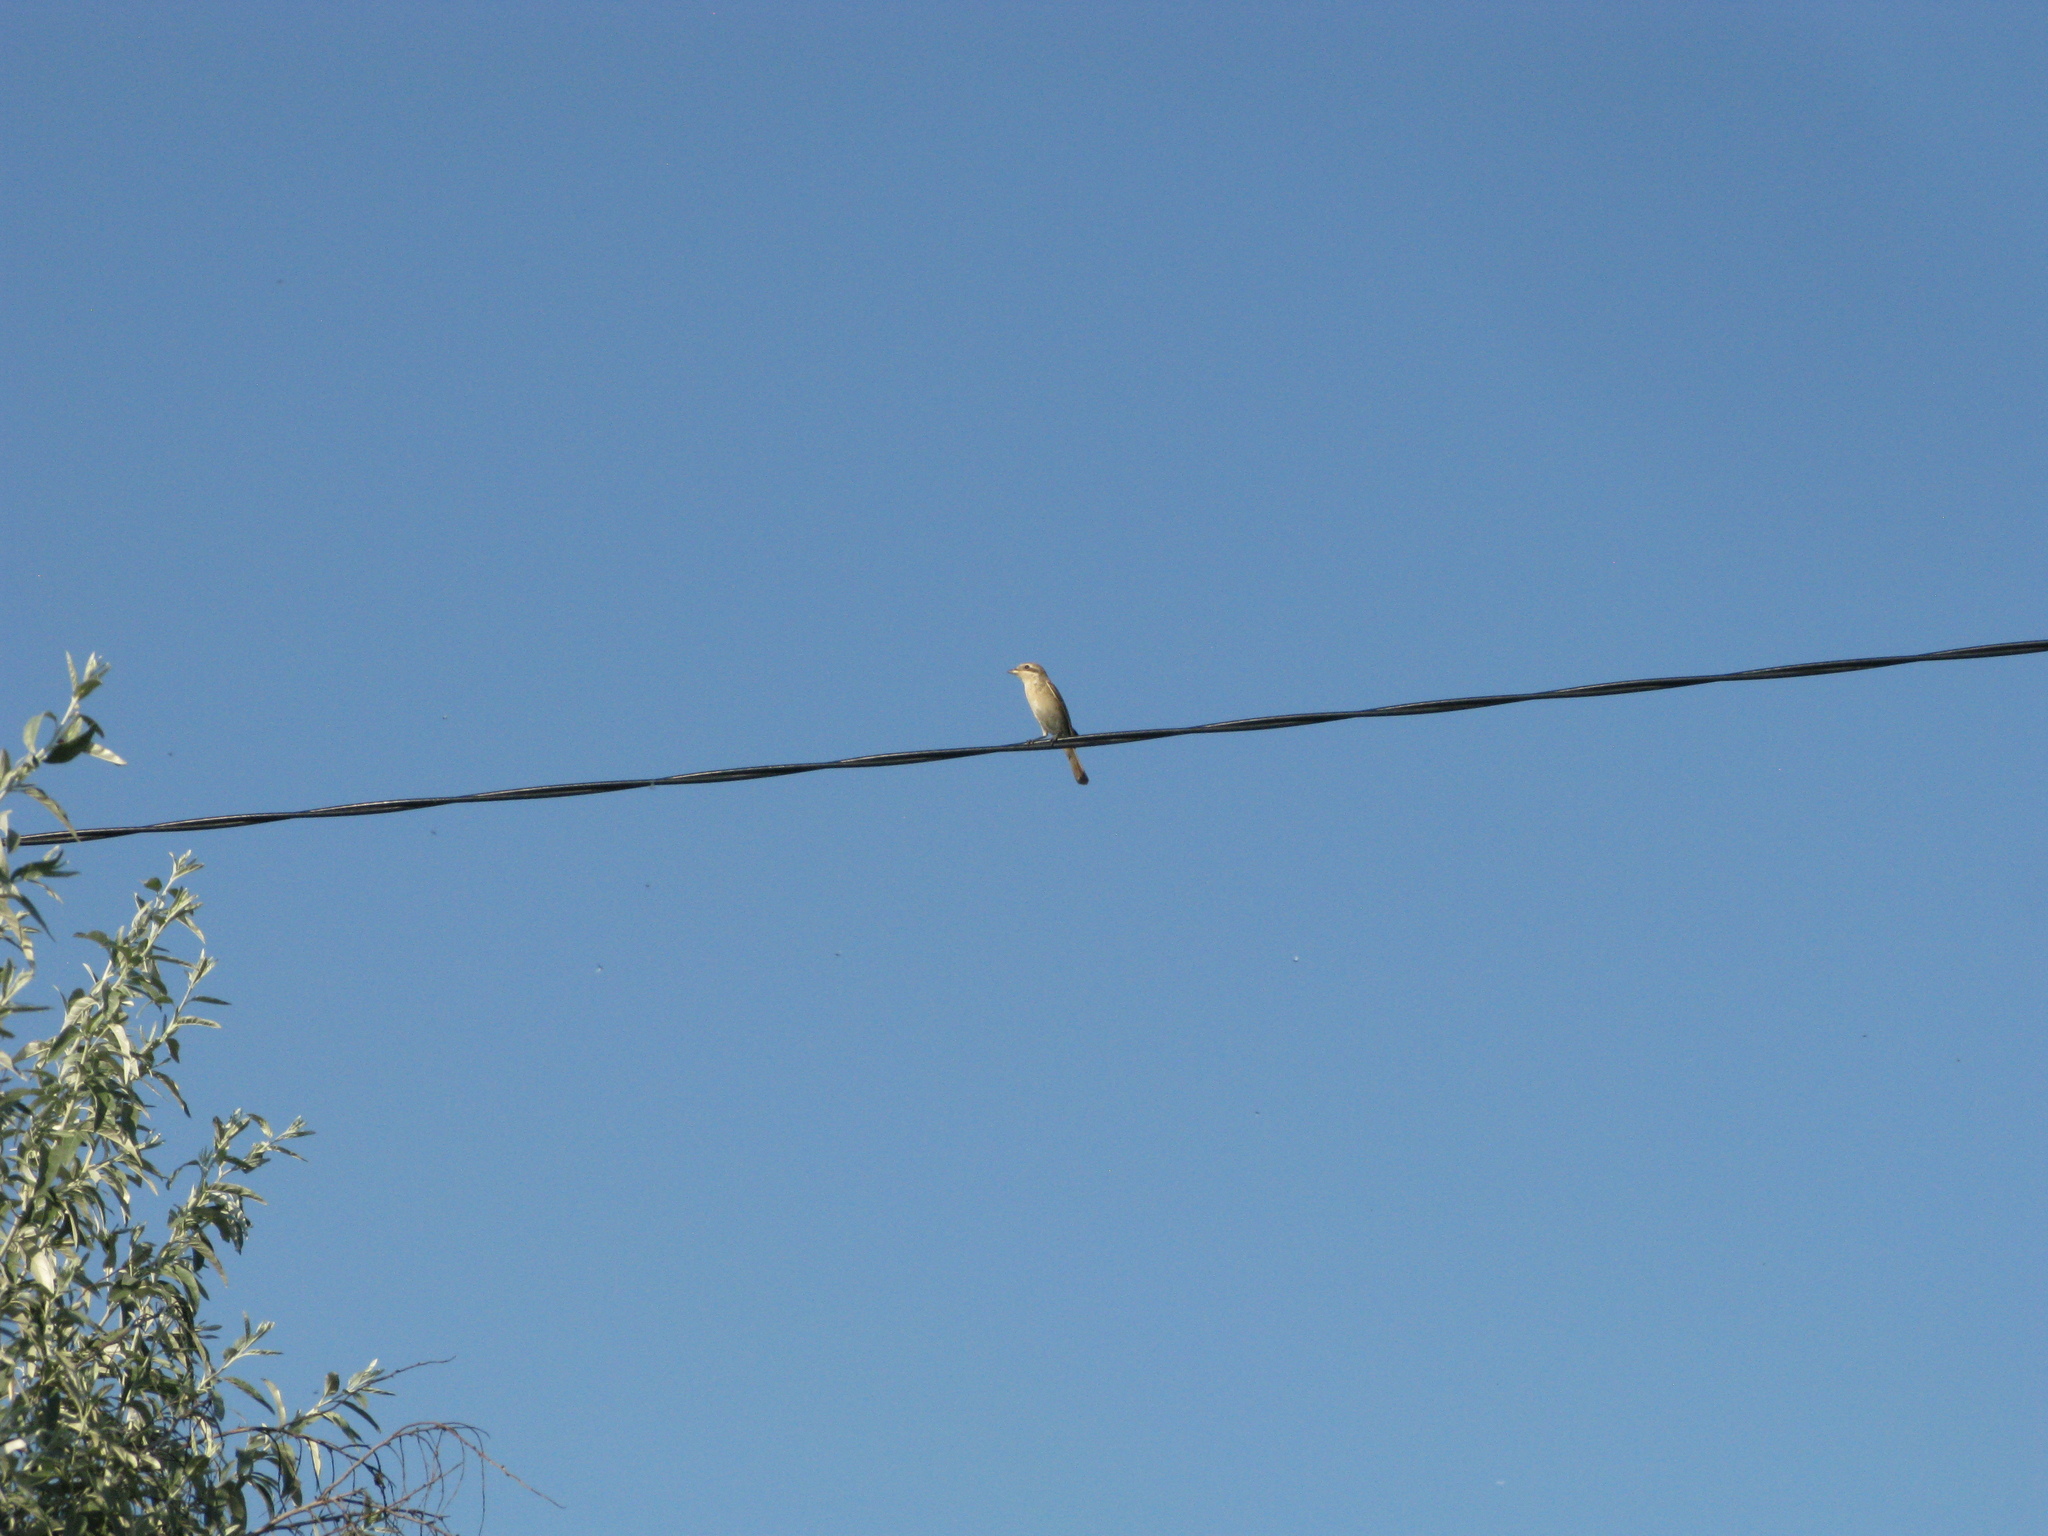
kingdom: Animalia
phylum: Chordata
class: Aves
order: Passeriformes
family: Laniidae
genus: Lanius
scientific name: Lanius collurio
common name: Red-backed shrike
